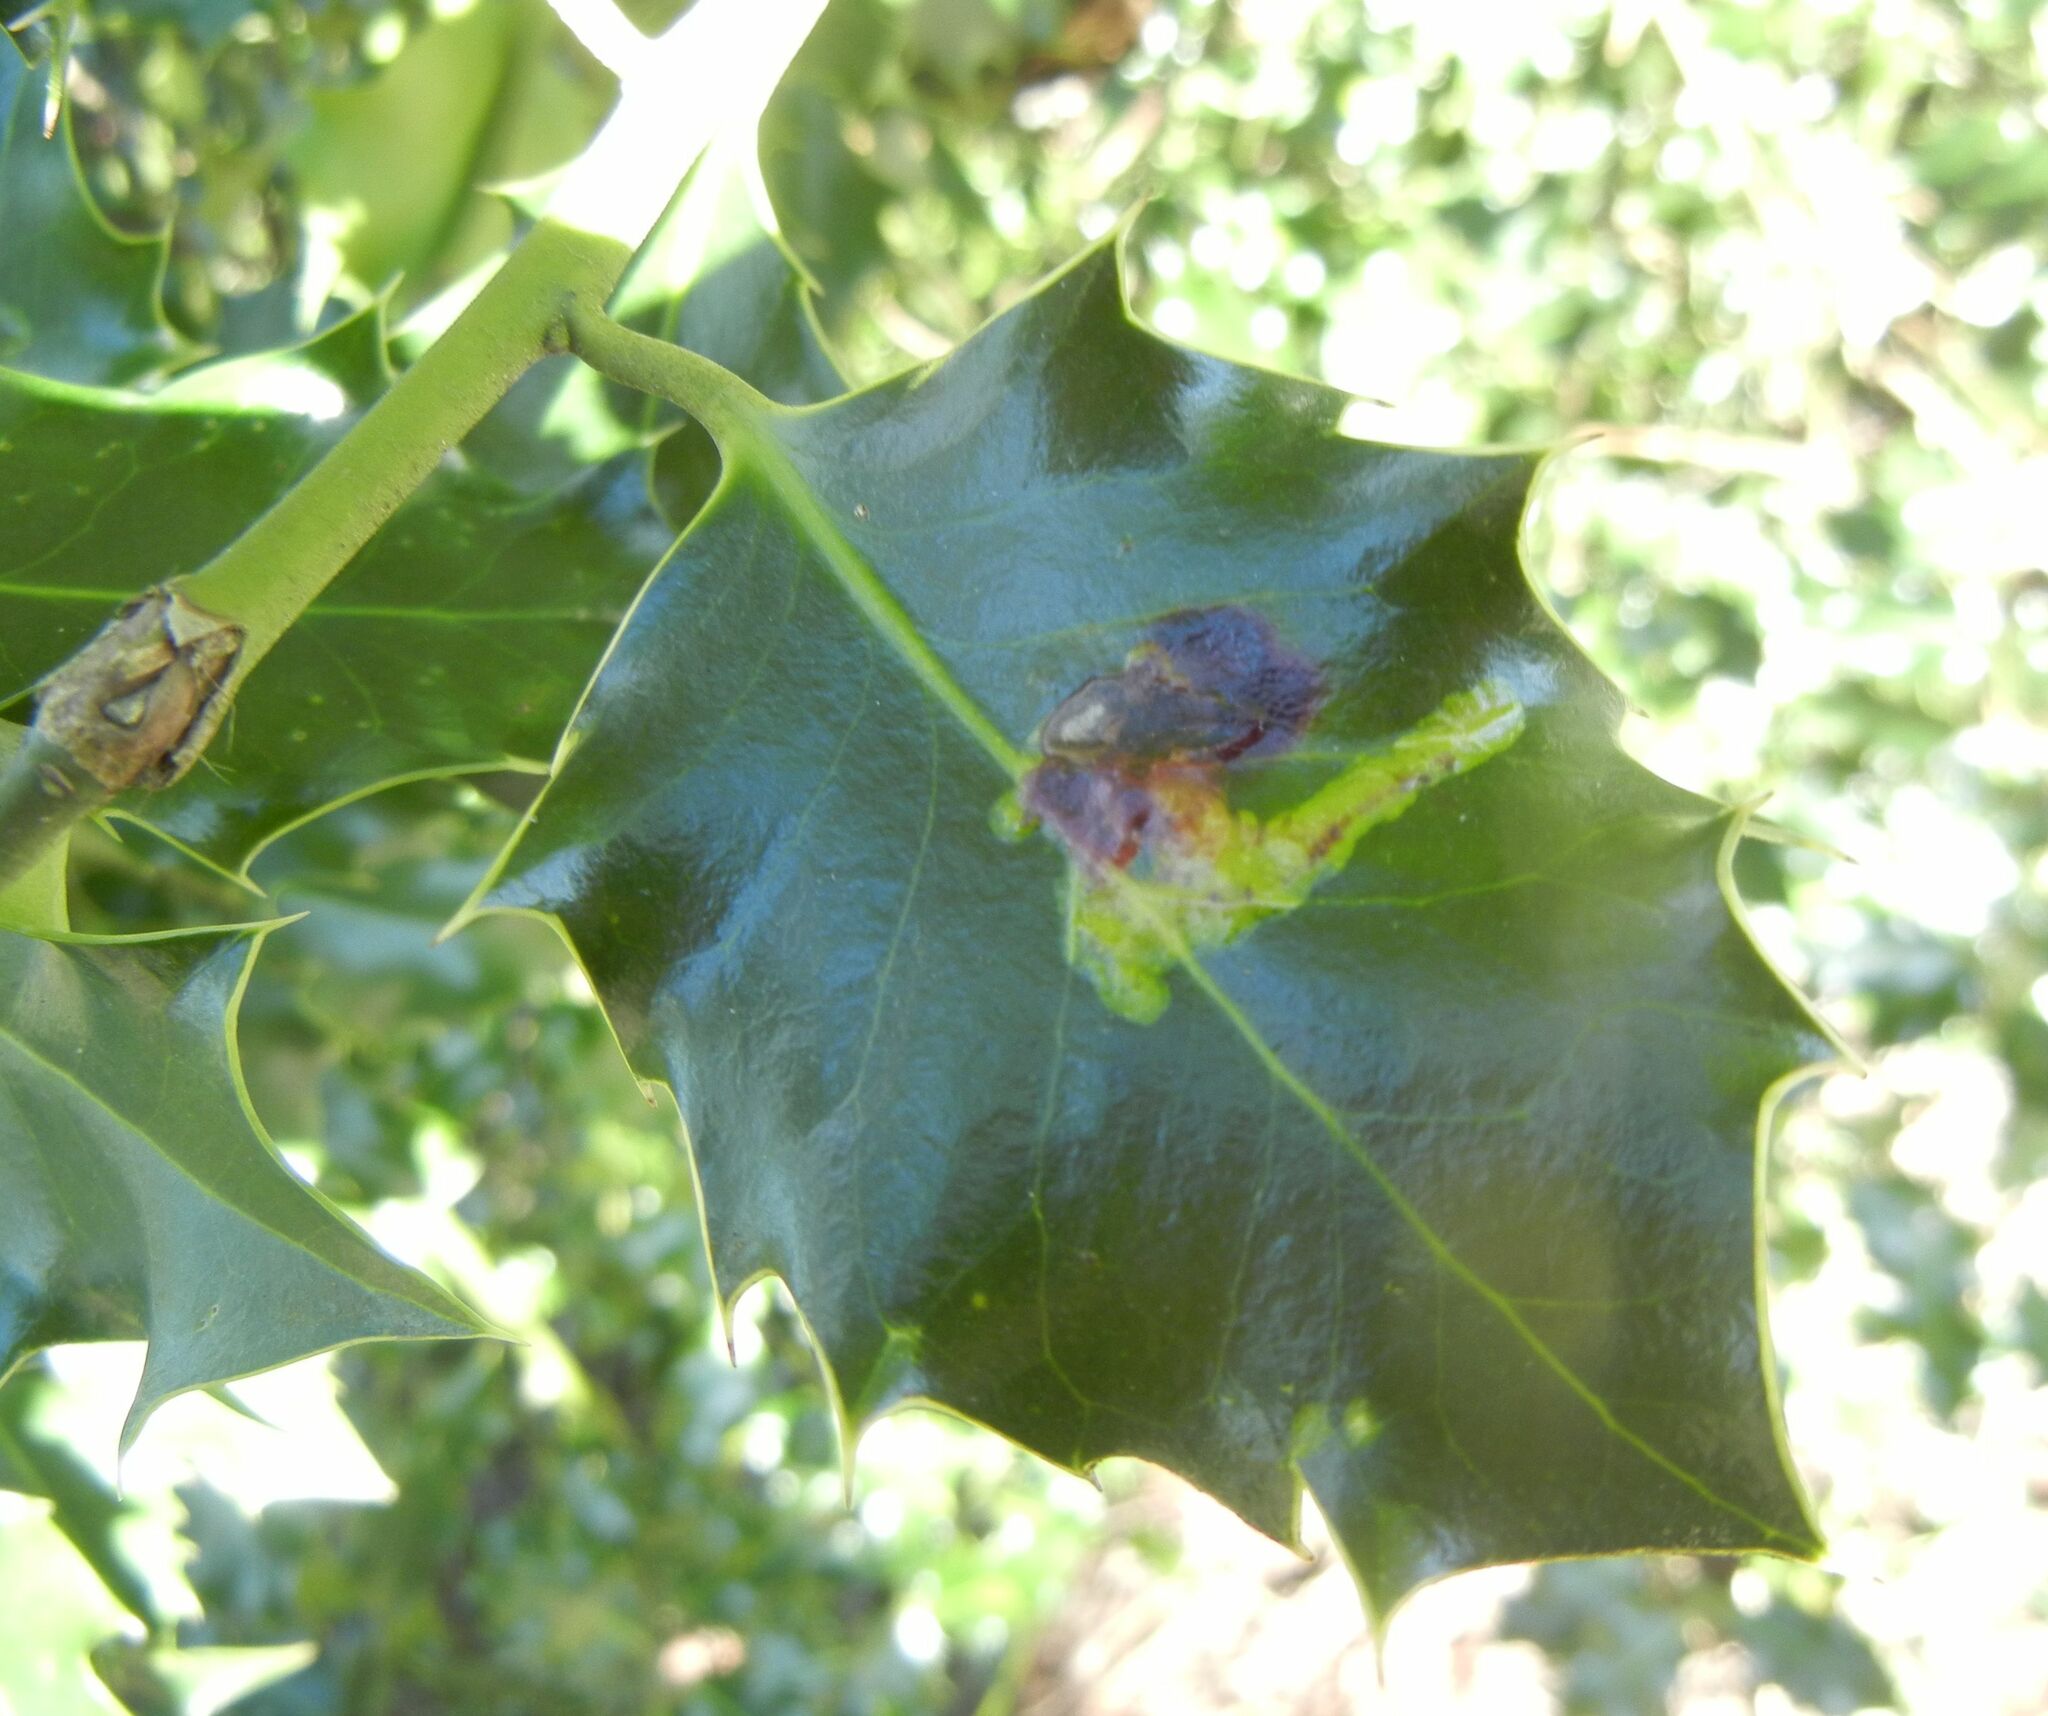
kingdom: Plantae
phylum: Tracheophyta
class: Magnoliopsida
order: Aquifoliales
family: Aquifoliaceae
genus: Ilex
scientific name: Ilex aquifolium
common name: English holly
